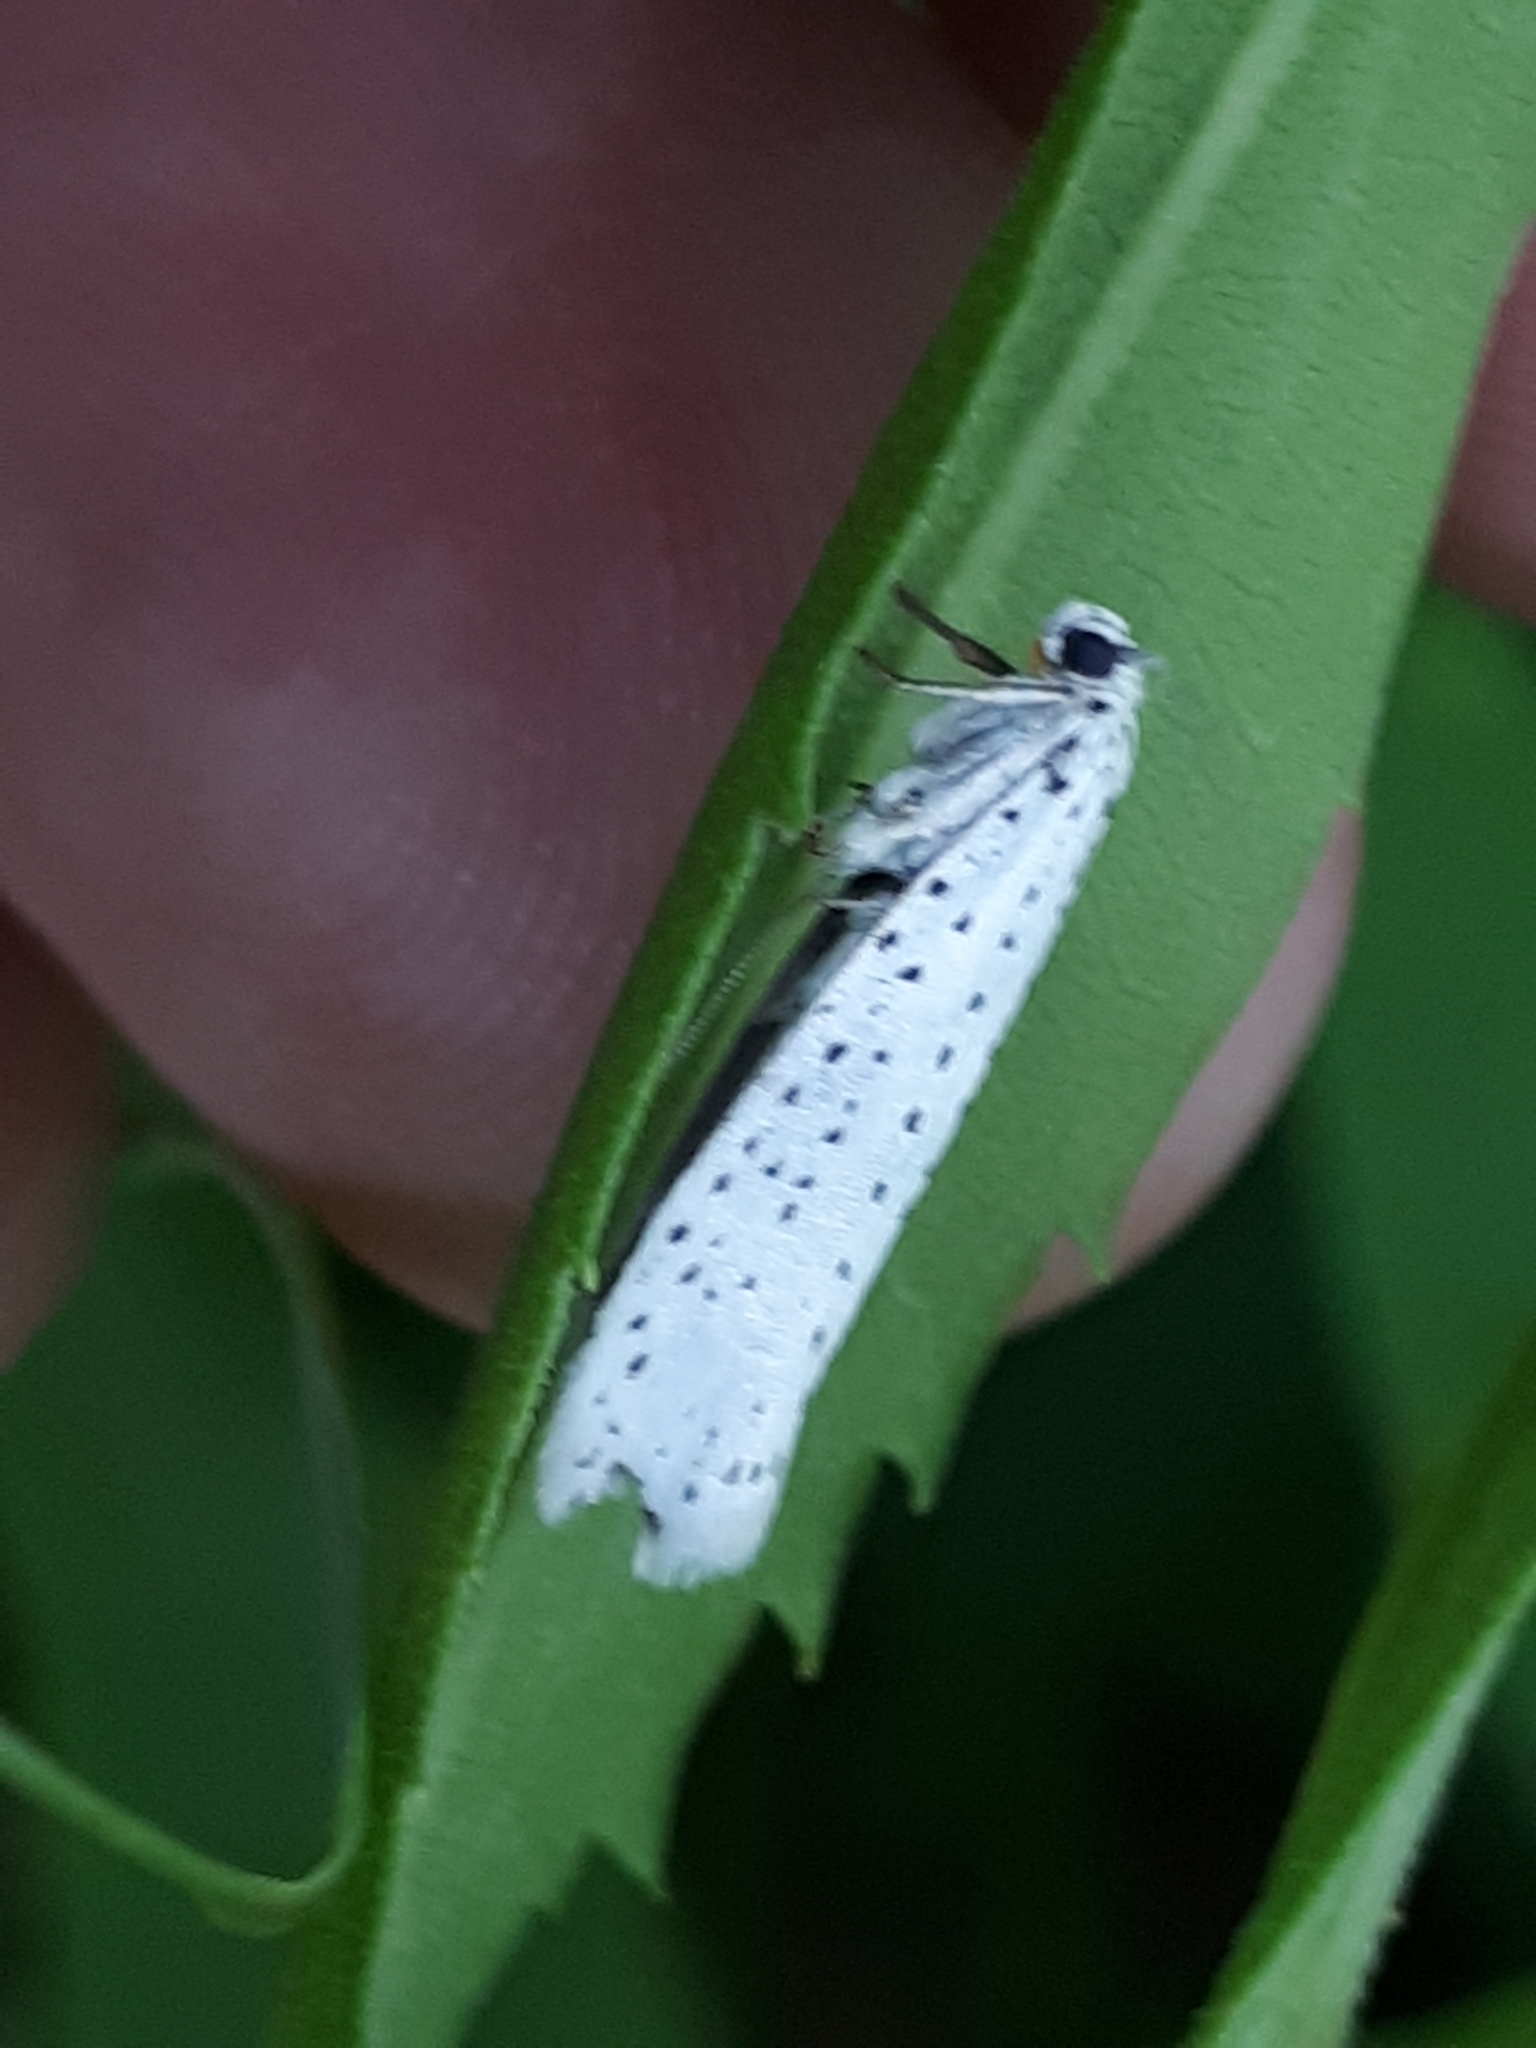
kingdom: Animalia
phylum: Arthropoda
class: Insecta
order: Lepidoptera
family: Yponomeutidae
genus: Yponomeuta
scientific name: Yponomeuta evonymella
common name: Bird-cherry ermine
